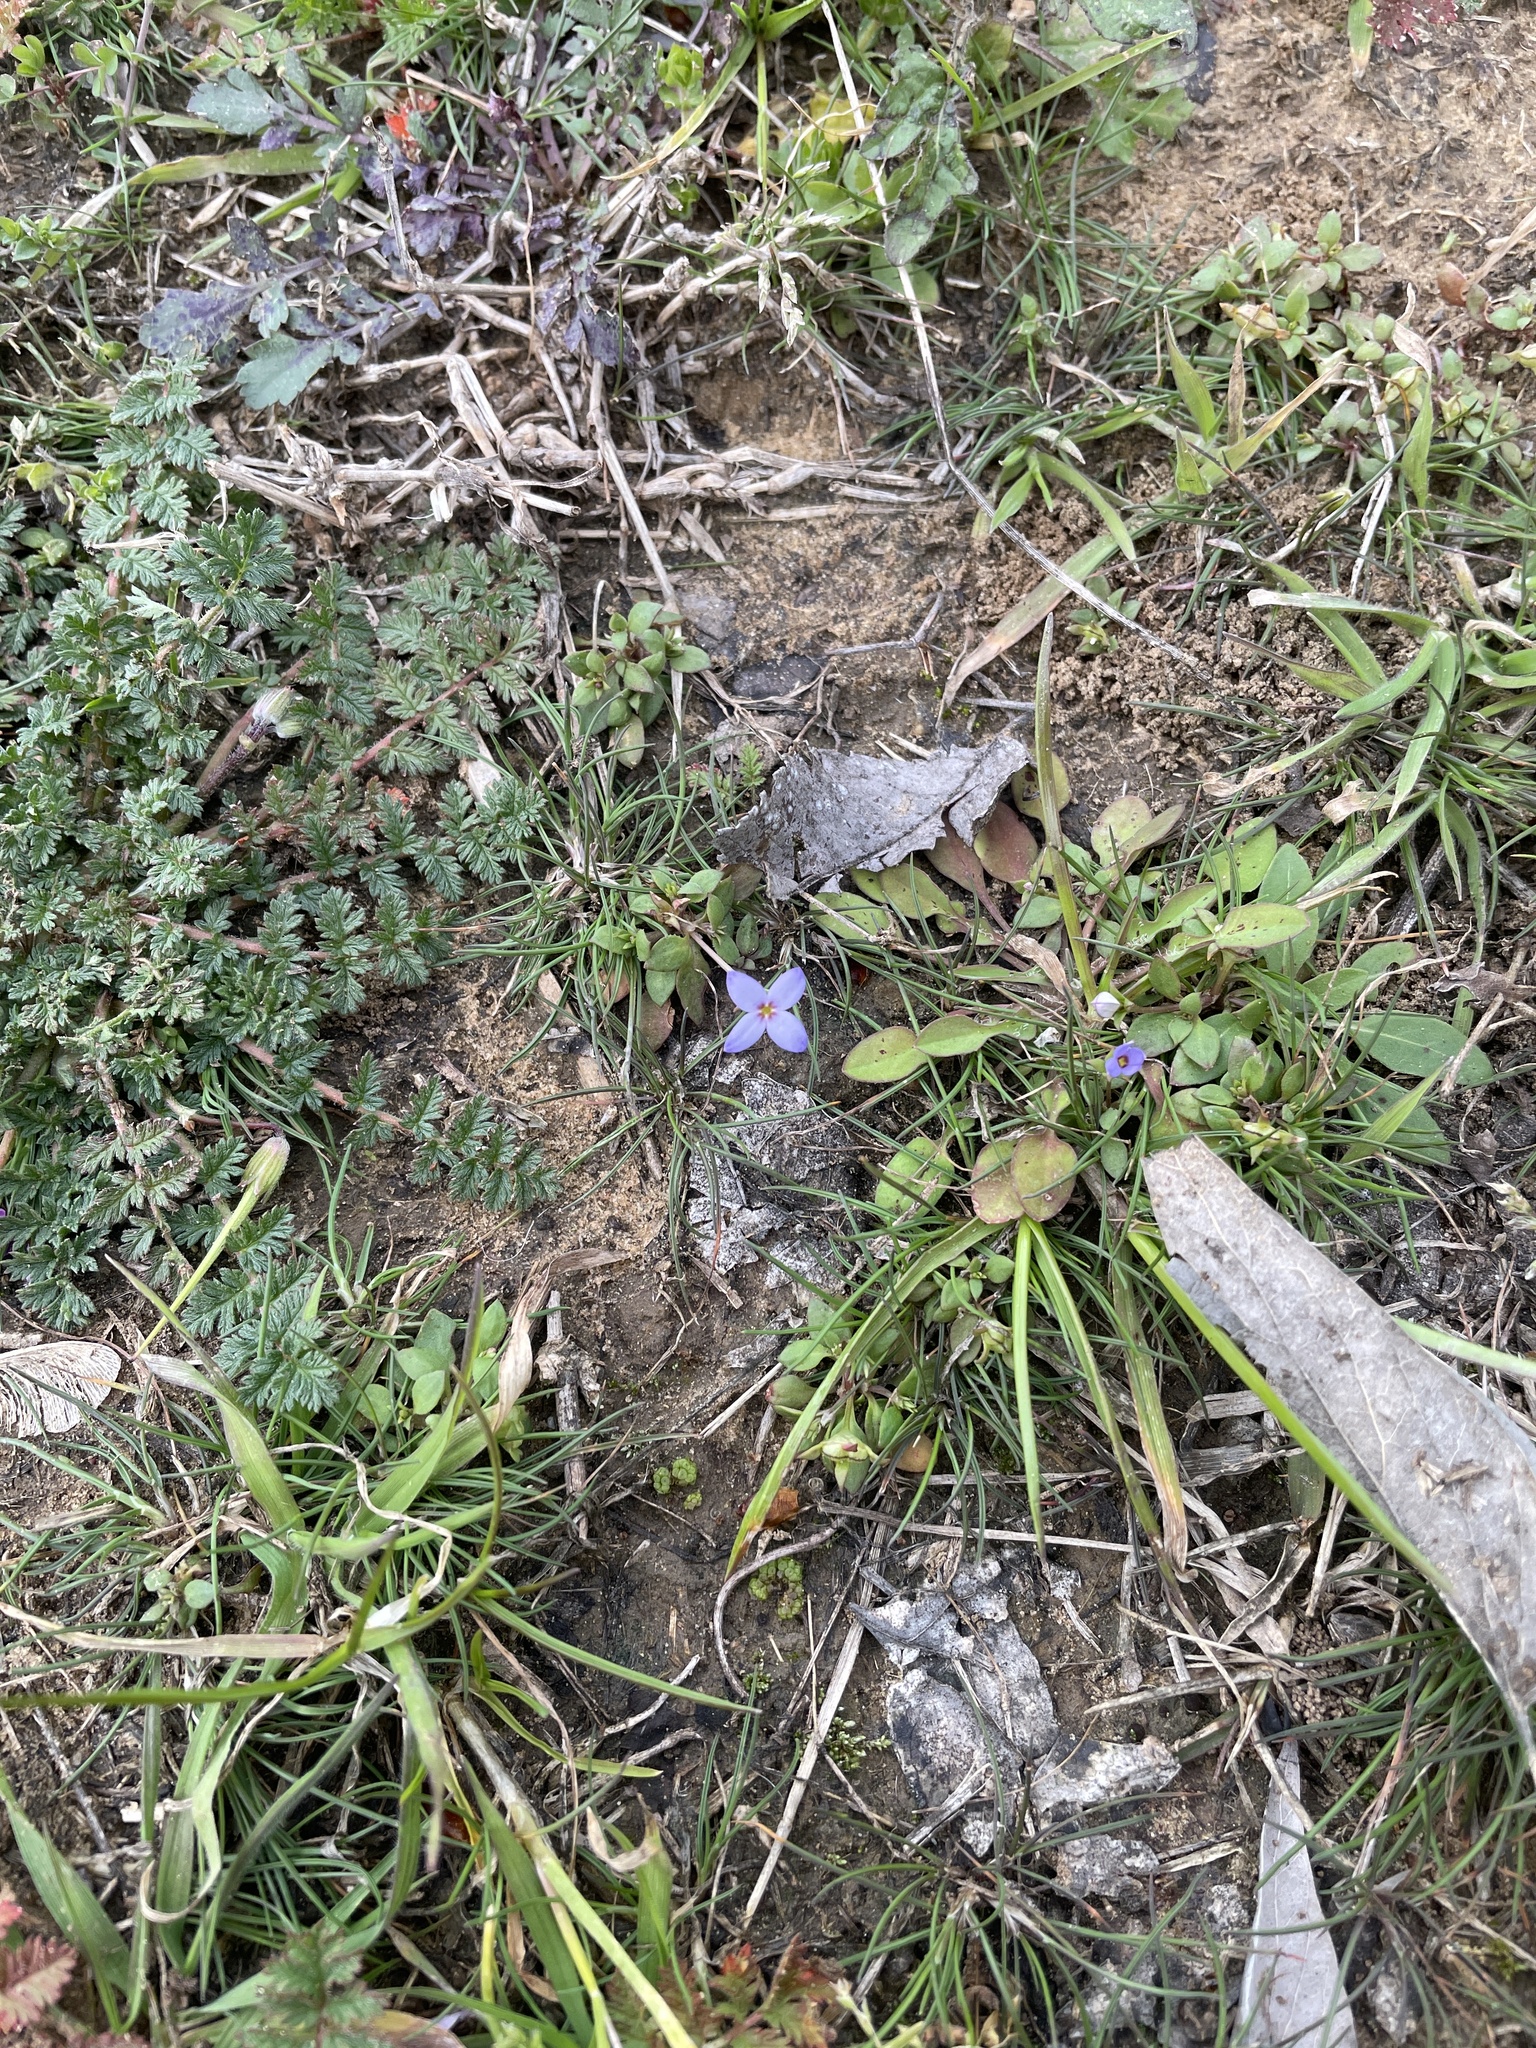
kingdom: Plantae
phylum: Tracheophyta
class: Magnoliopsida
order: Gentianales
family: Rubiaceae
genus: Houstonia
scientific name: Houstonia pusilla
